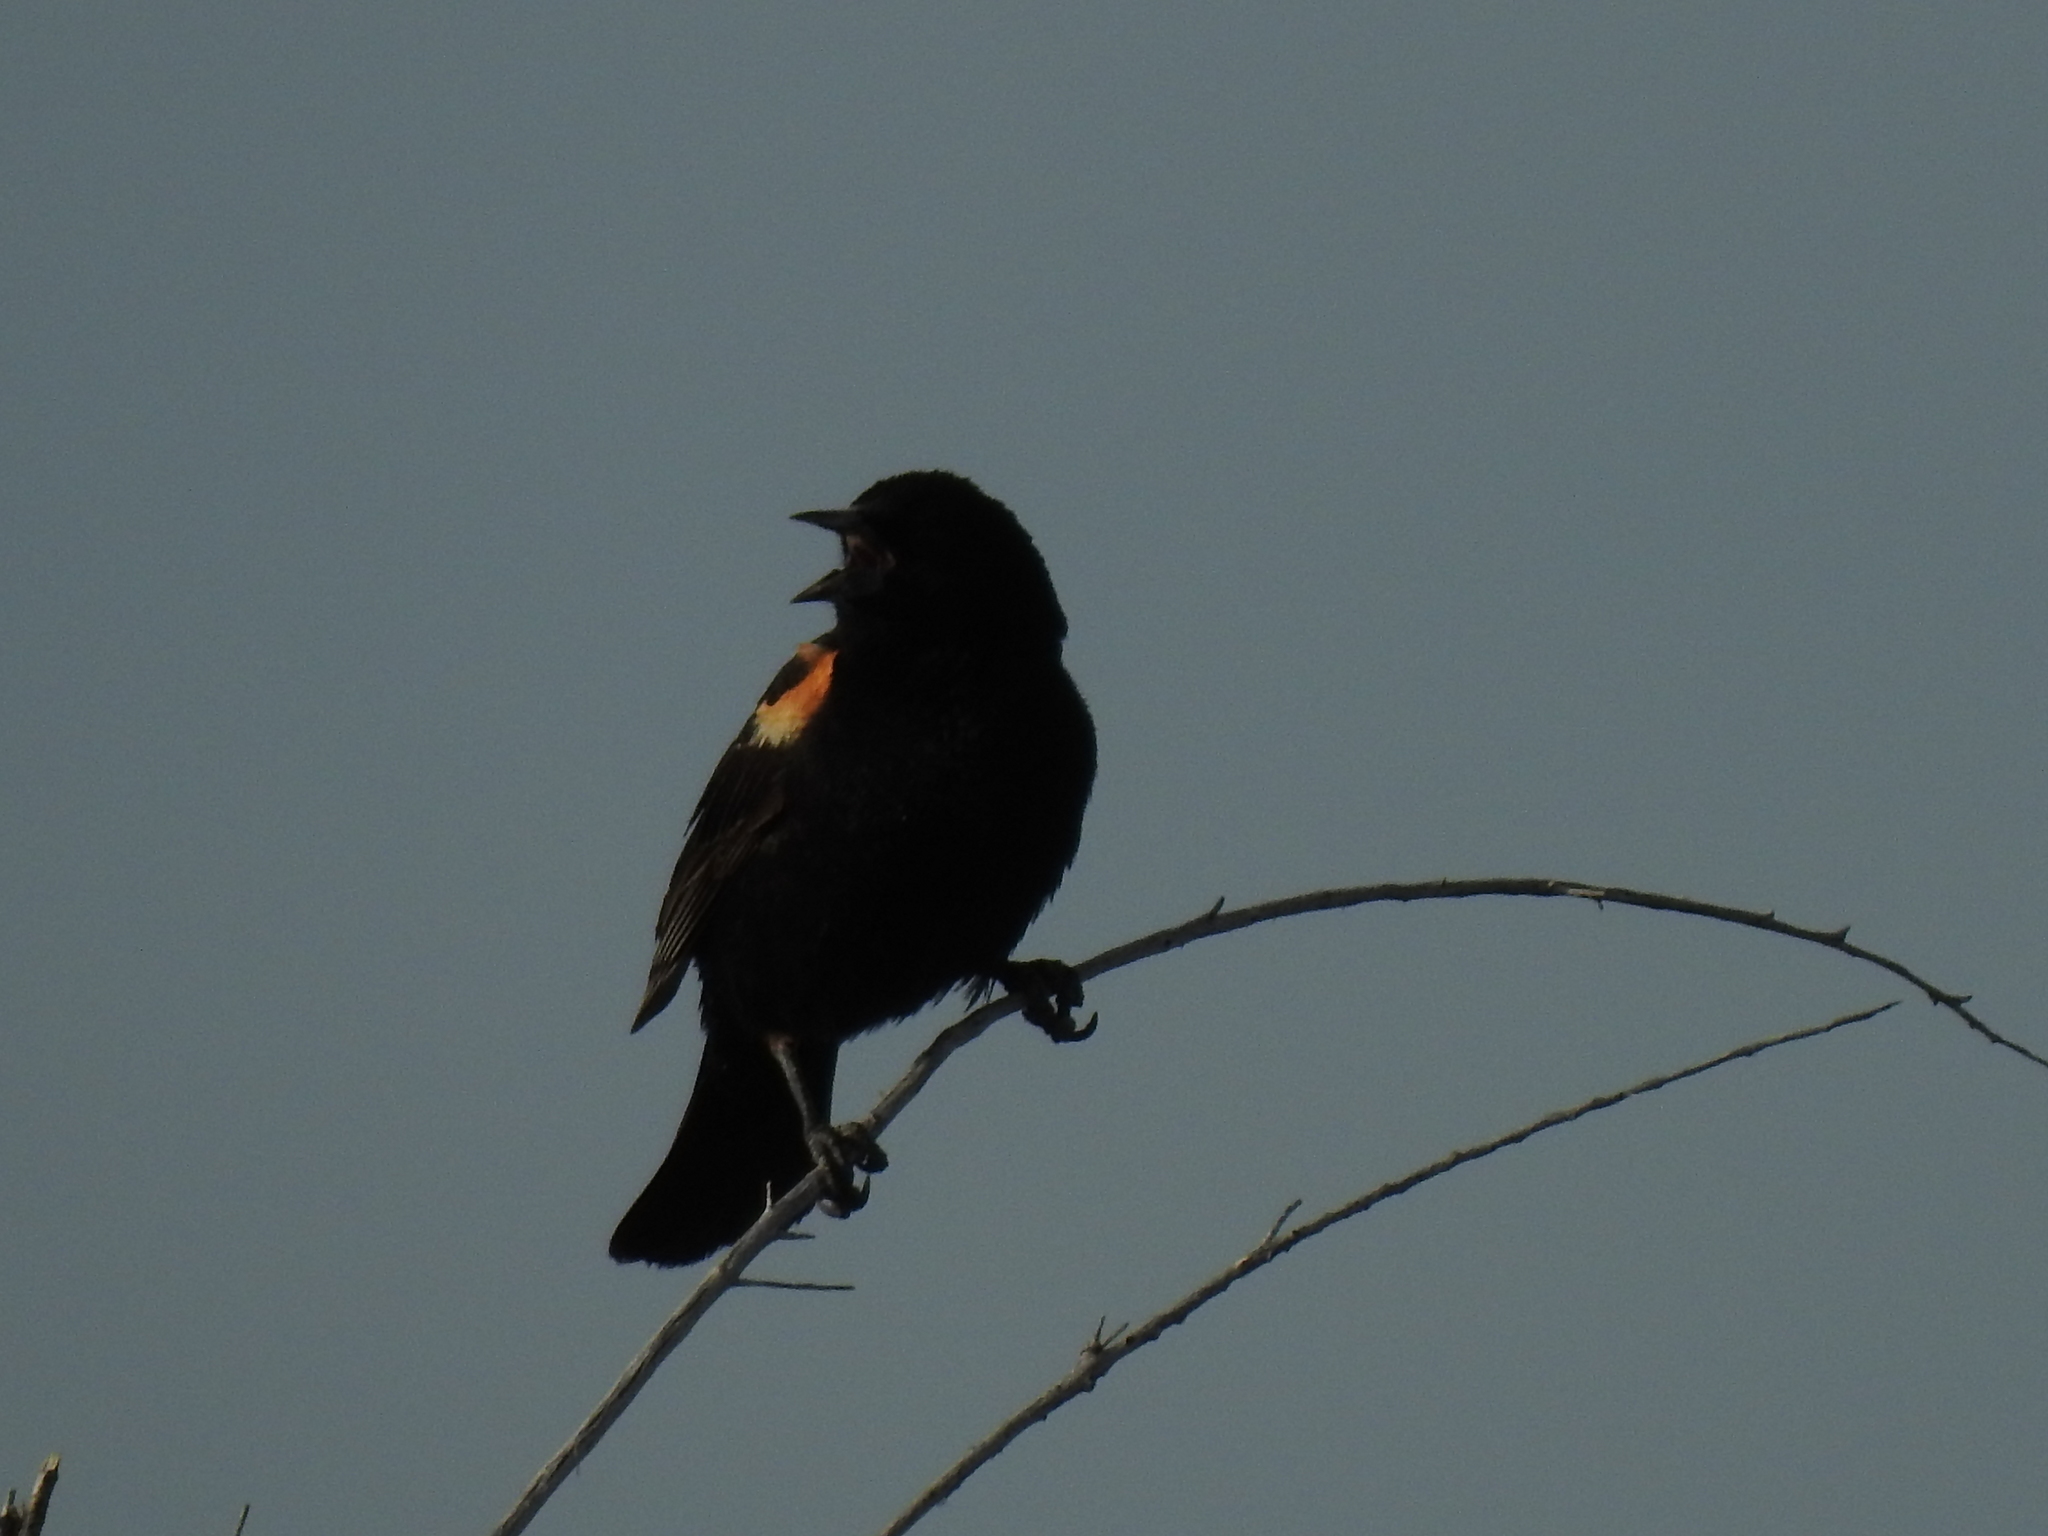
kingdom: Animalia
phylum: Chordata
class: Aves
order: Passeriformes
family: Icteridae
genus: Agelaius
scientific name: Agelaius phoeniceus
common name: Red-winged blackbird
